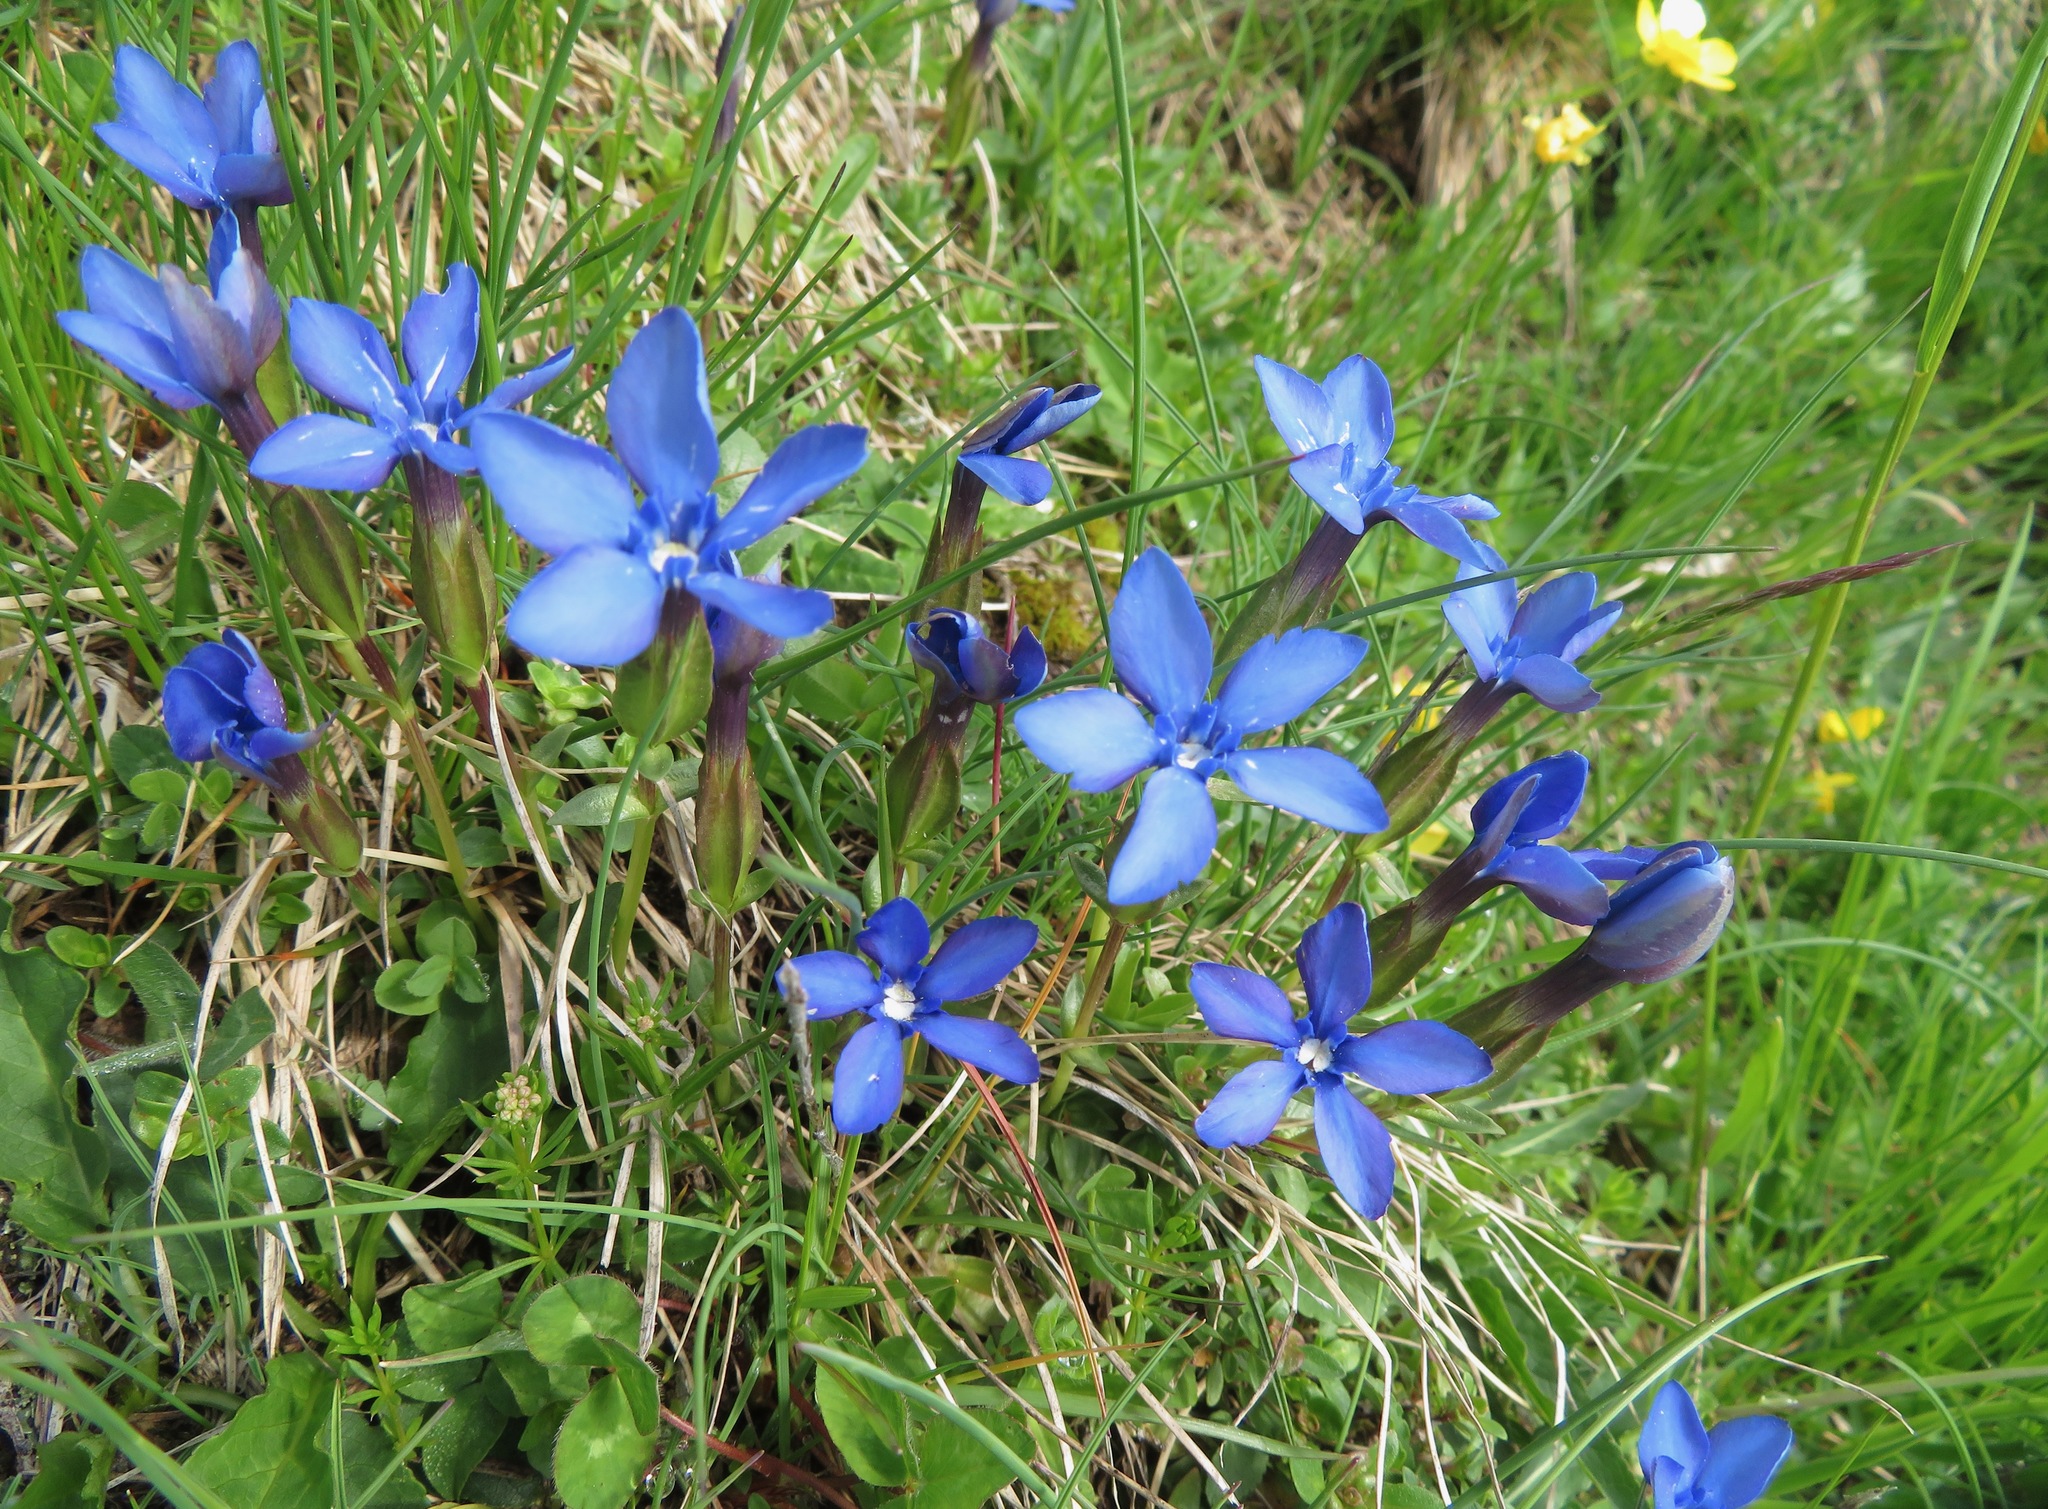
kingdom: Plantae
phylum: Tracheophyta
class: Magnoliopsida
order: Gentianales
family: Gentianaceae
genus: Gentiana
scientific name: Gentiana verna
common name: Spring gentian
